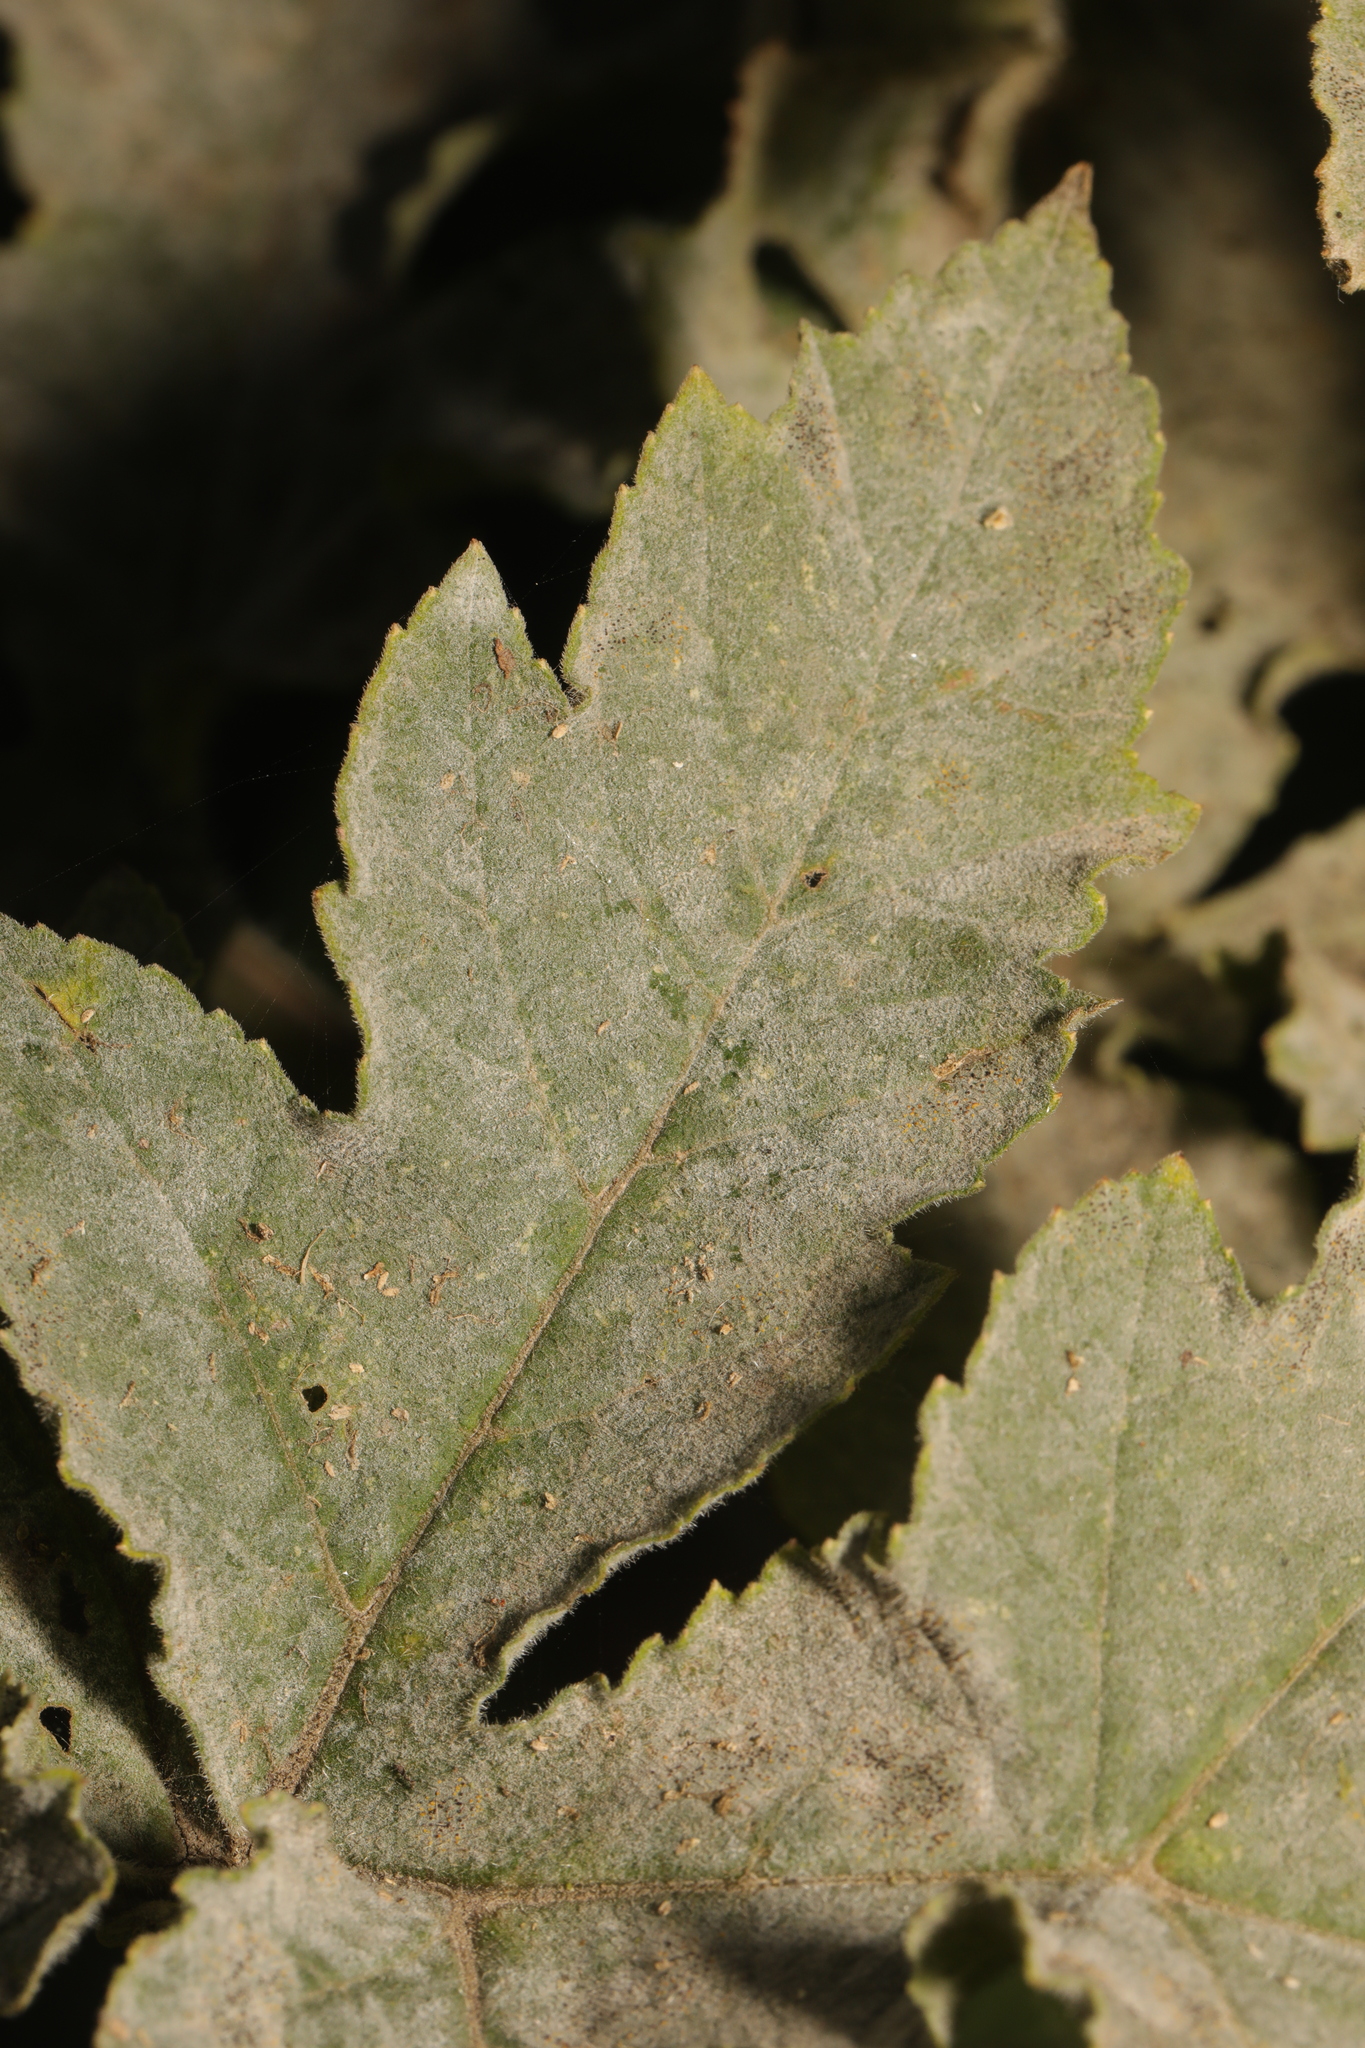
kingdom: Fungi
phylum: Ascomycota
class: Leotiomycetes
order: Helotiales
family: Erysiphaceae
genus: Erysiphe
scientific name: Erysiphe heraclei
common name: Umbellifer mildew
